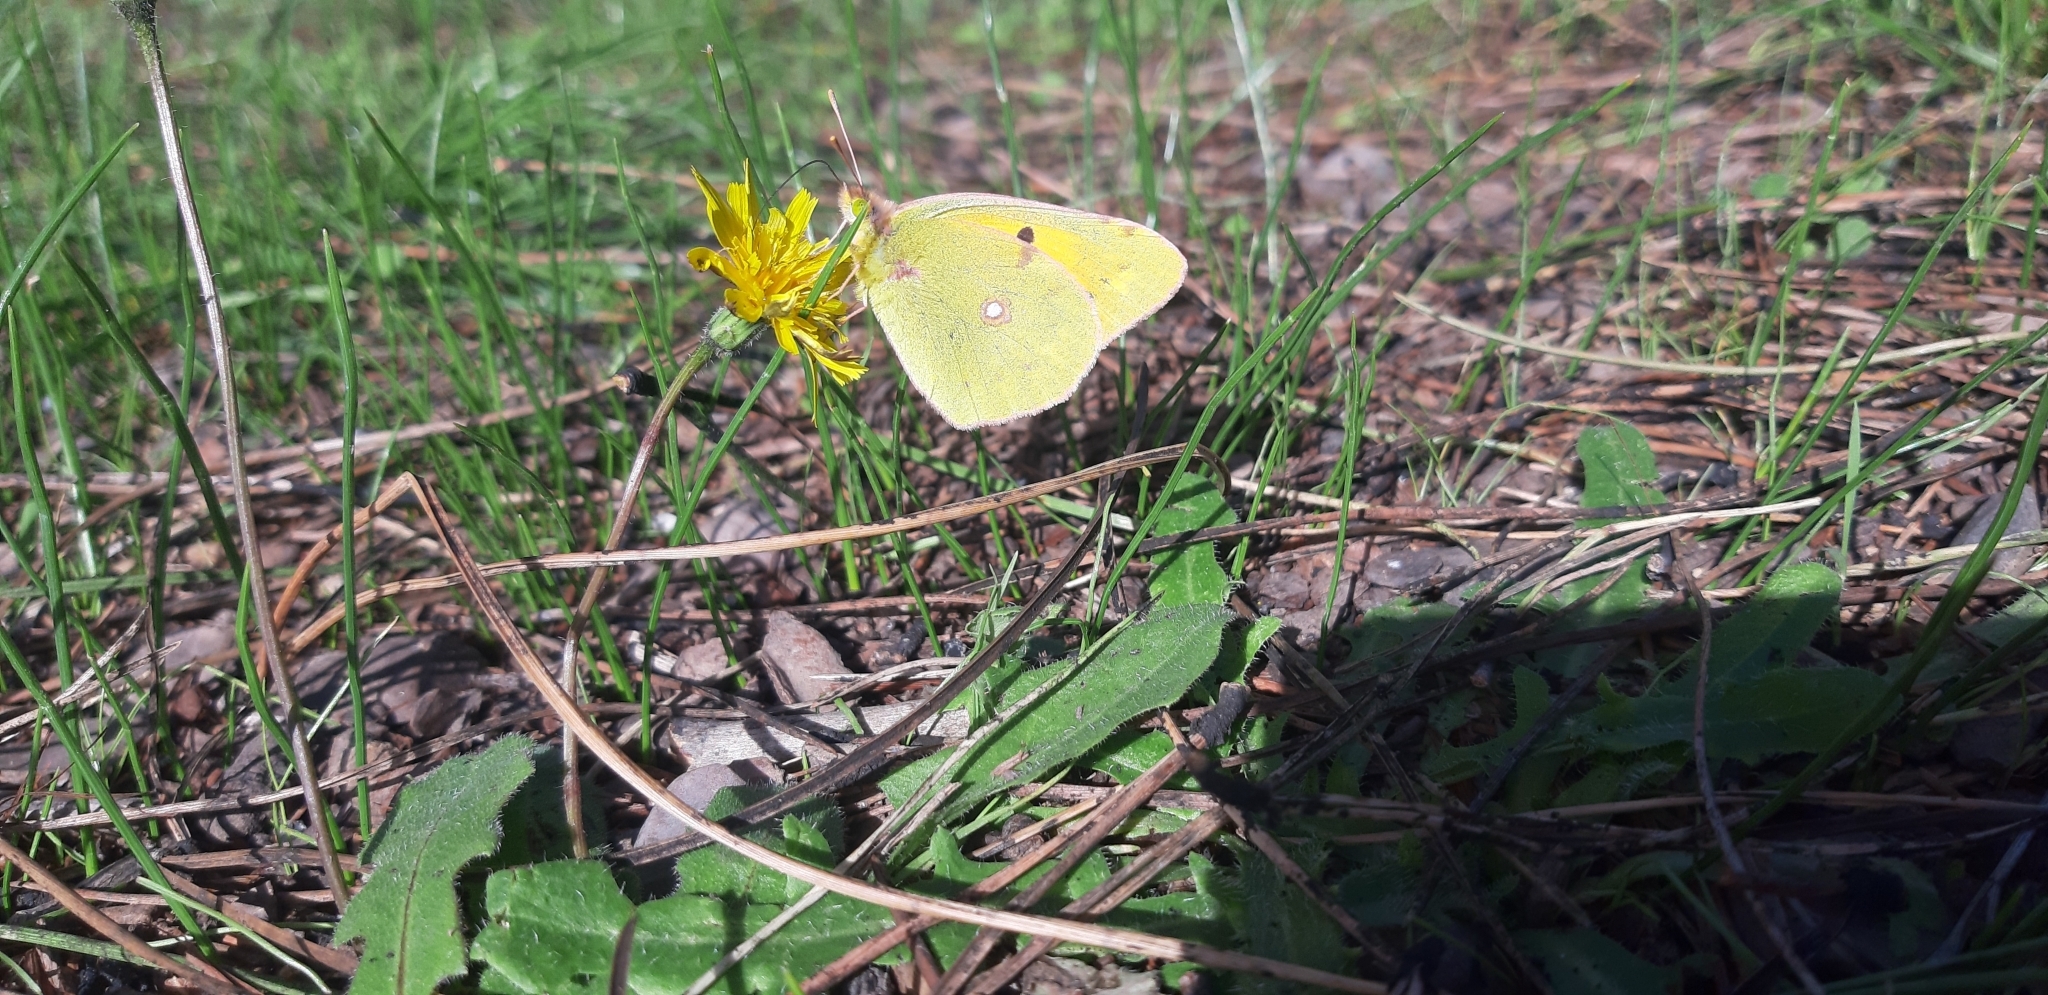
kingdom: Animalia
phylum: Arthropoda
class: Insecta
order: Lepidoptera
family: Pieridae
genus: Colias
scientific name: Colias croceus
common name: Clouded yellow
